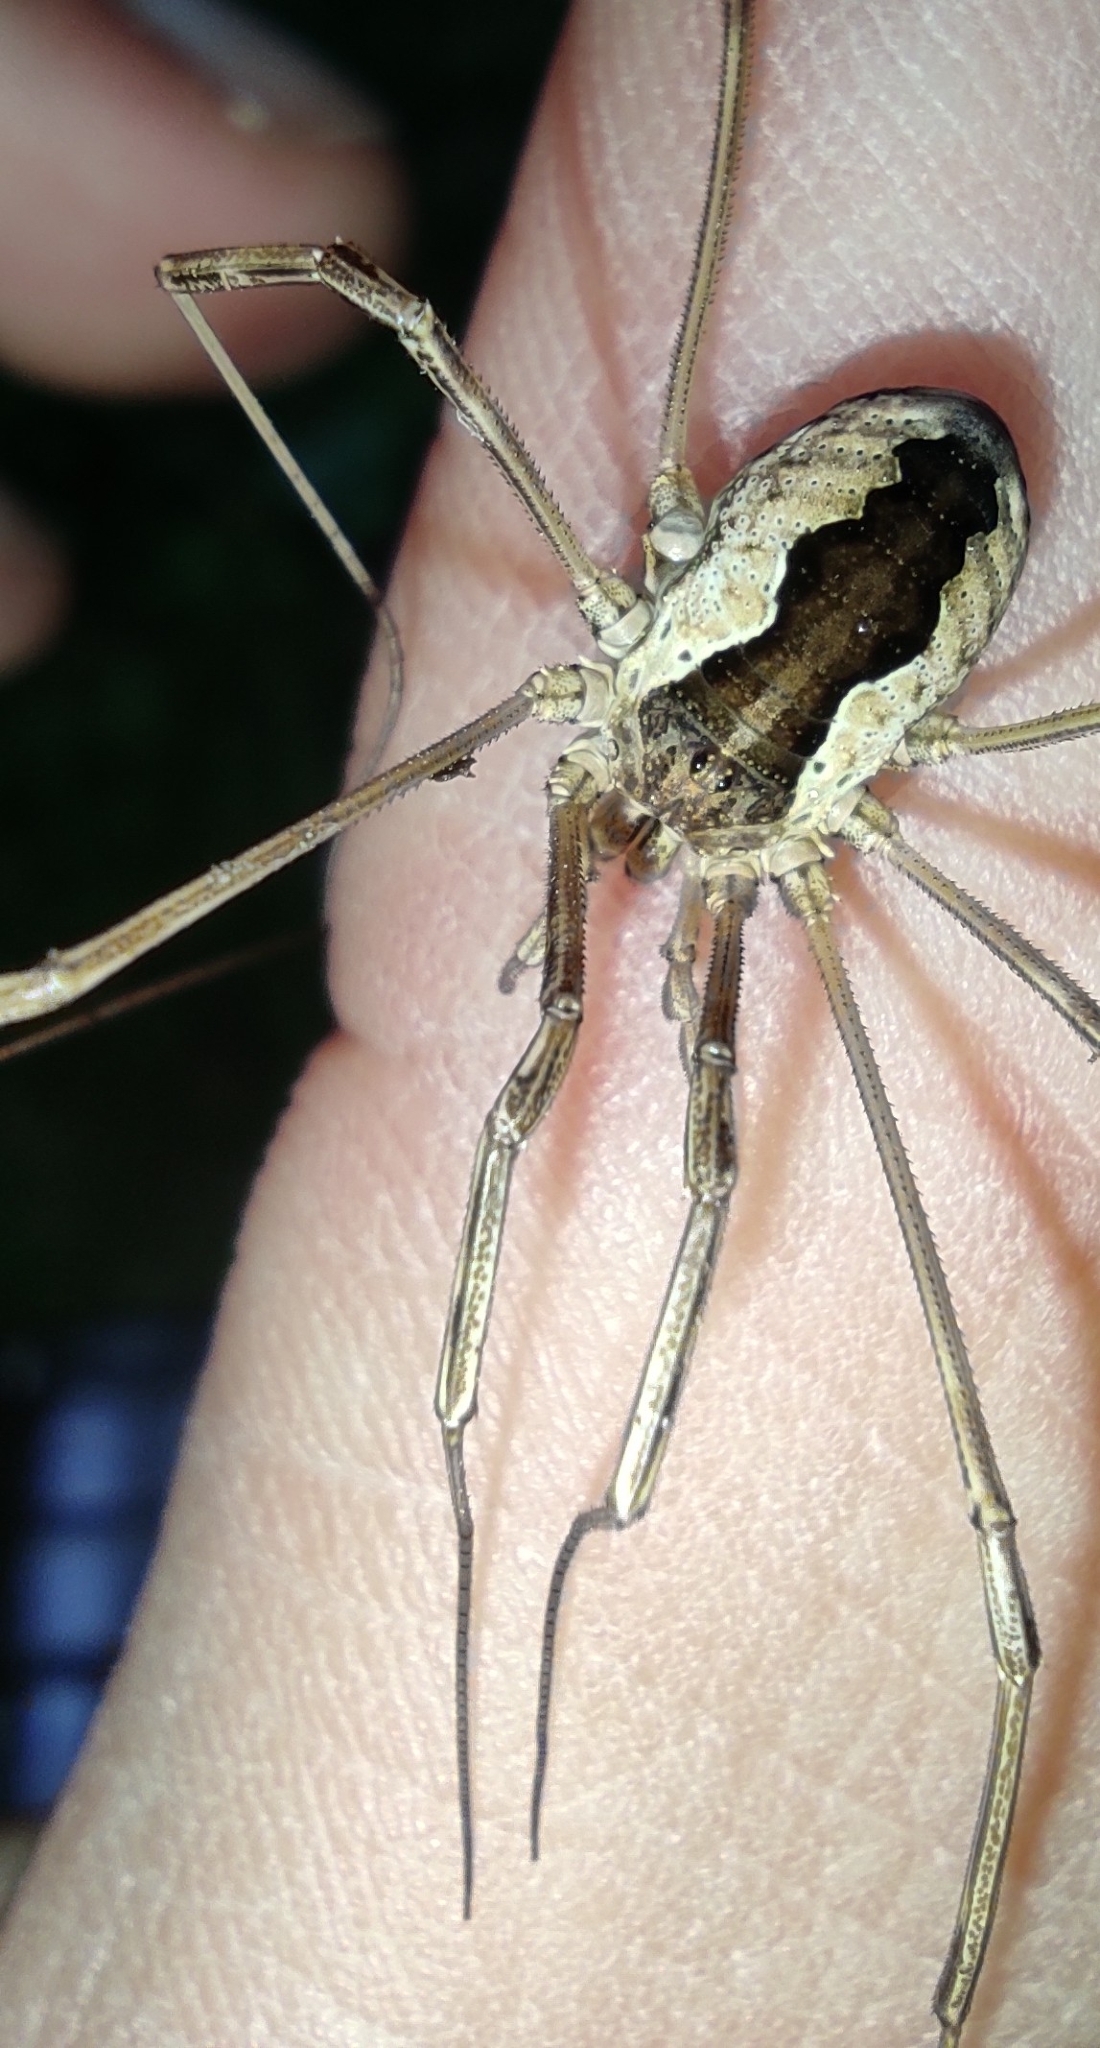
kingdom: Animalia
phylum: Arthropoda
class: Arachnida
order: Opiliones
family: Phalangiidae
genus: Mitopus
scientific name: Mitopus morio
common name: Saddleback harvestman
